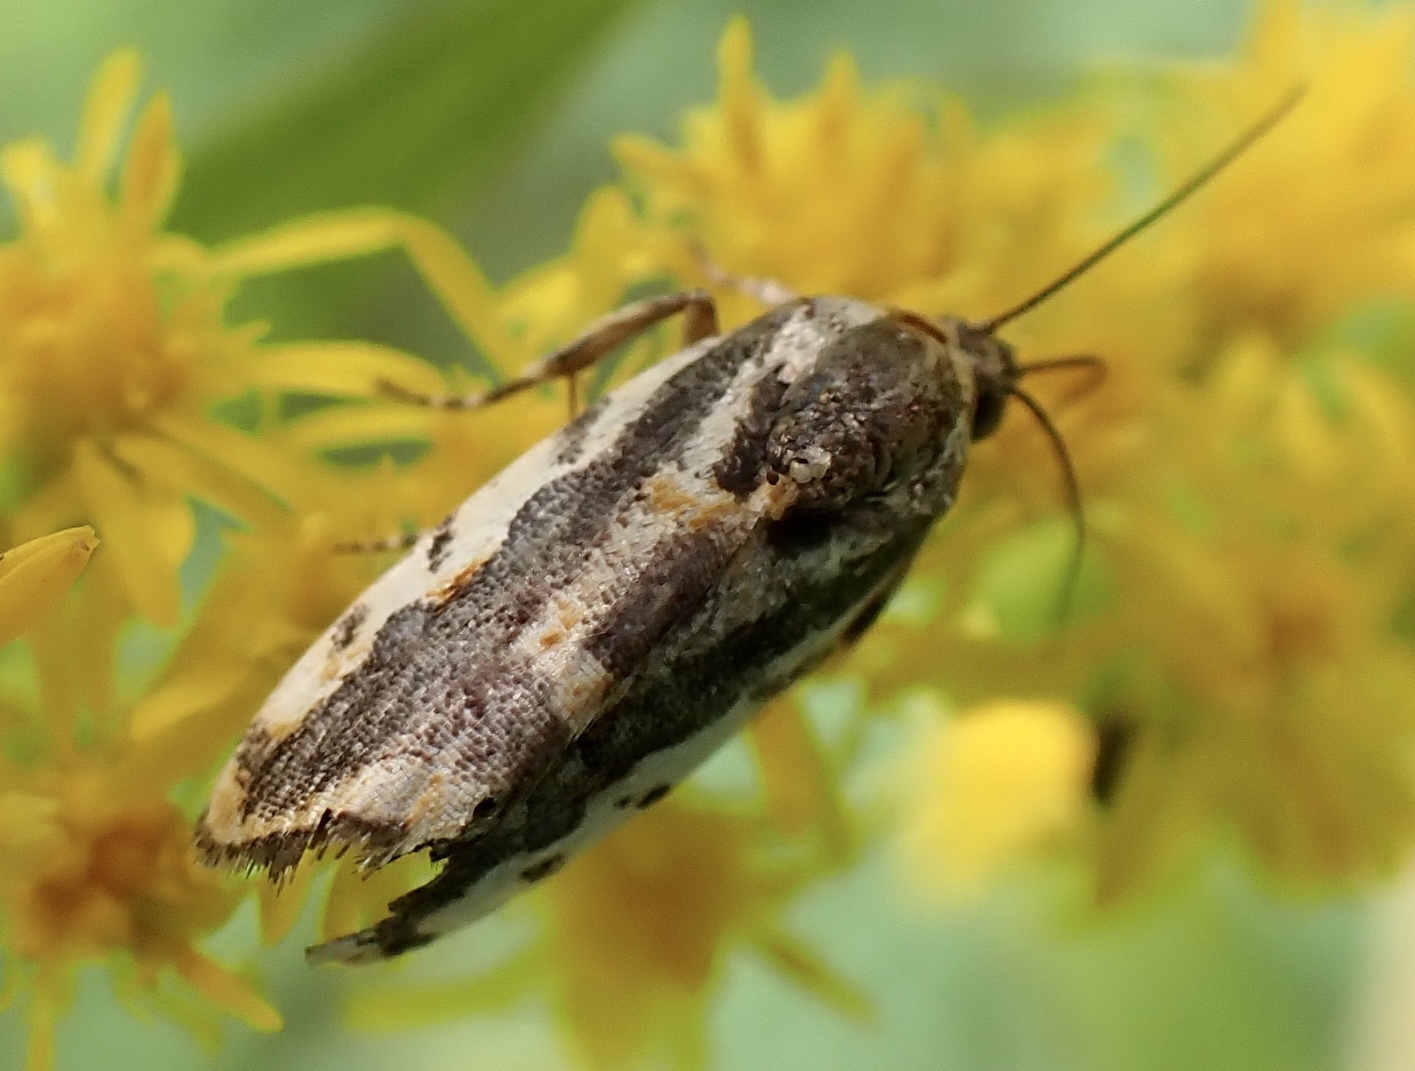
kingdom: Animalia
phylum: Arthropoda
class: Insecta
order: Lepidoptera
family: Noctuidae
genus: Acontia
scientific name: Acontia leo
